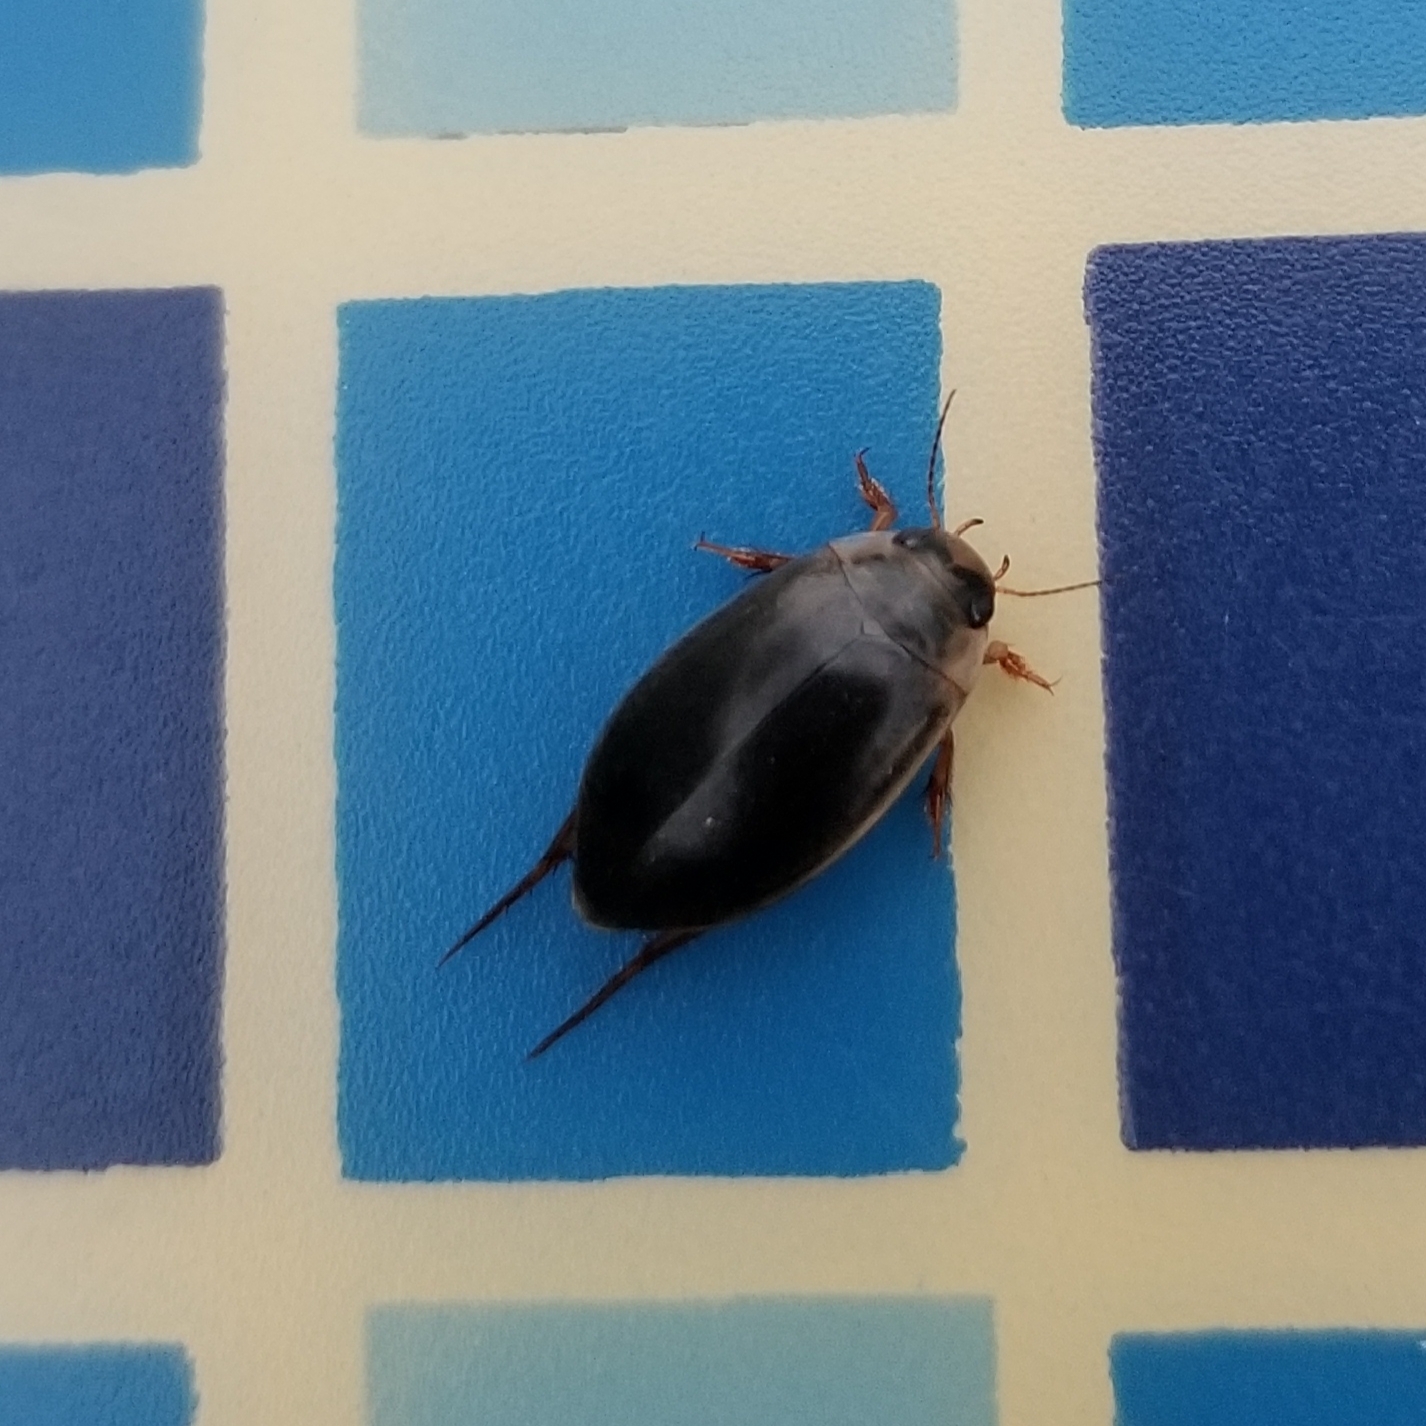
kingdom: Animalia
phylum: Arthropoda
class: Insecta
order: Coleoptera
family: Dytiscidae
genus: Rhantus
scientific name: Rhantus binotatus
